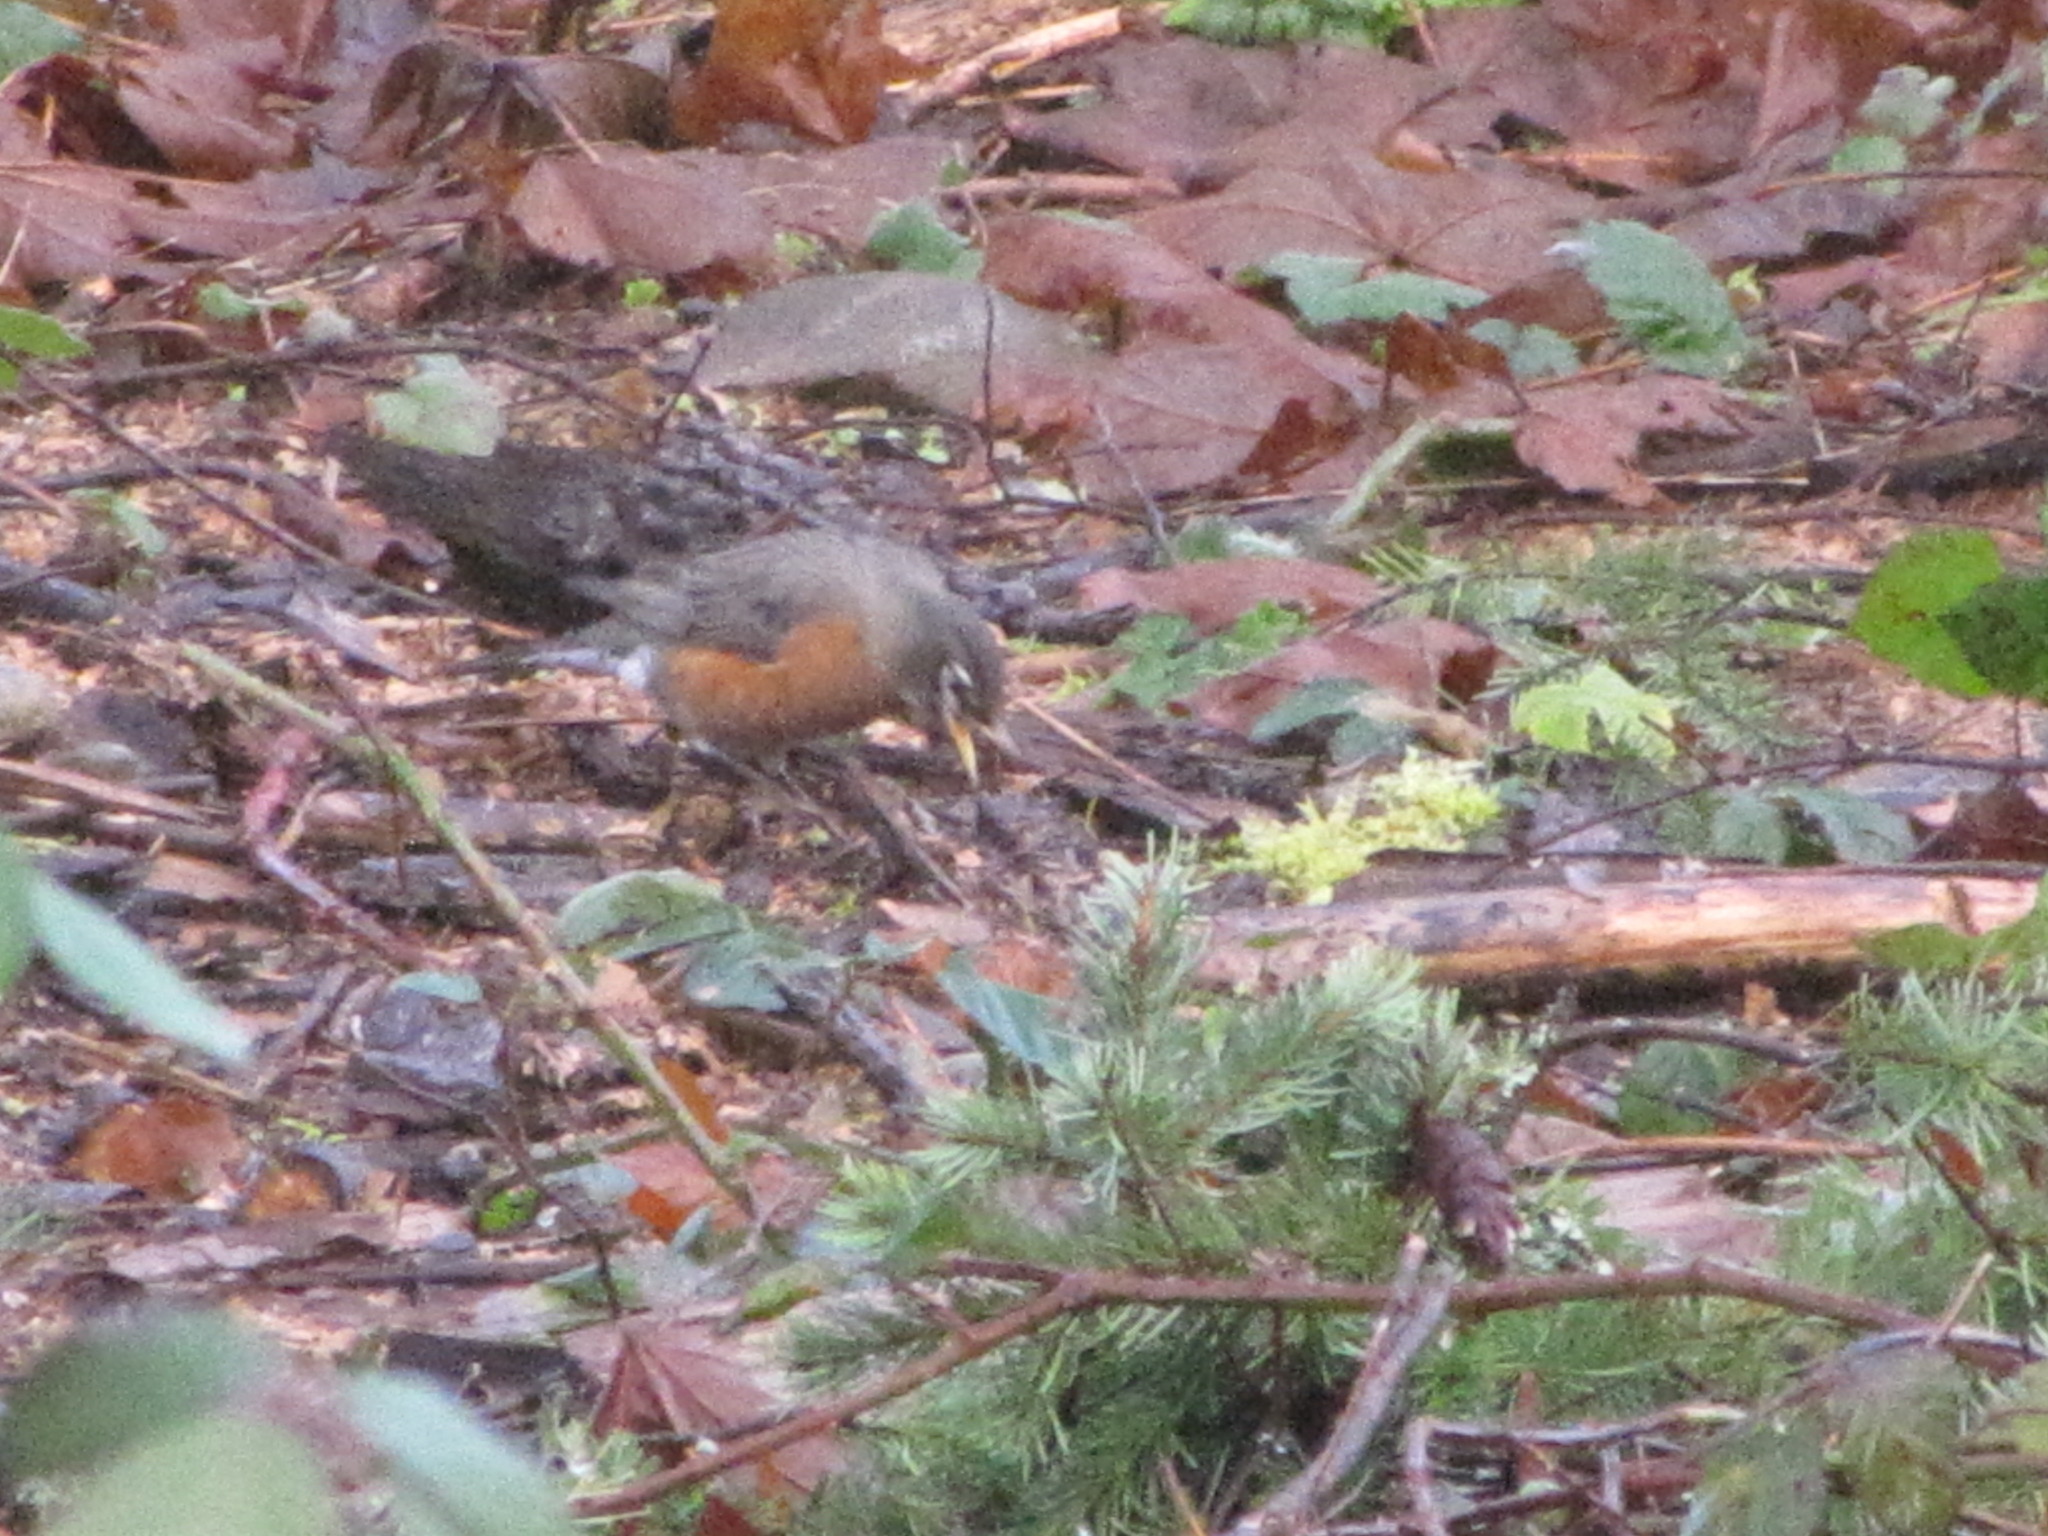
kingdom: Animalia
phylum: Chordata
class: Aves
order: Passeriformes
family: Turdidae
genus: Turdus
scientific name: Turdus migratorius
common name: American robin
